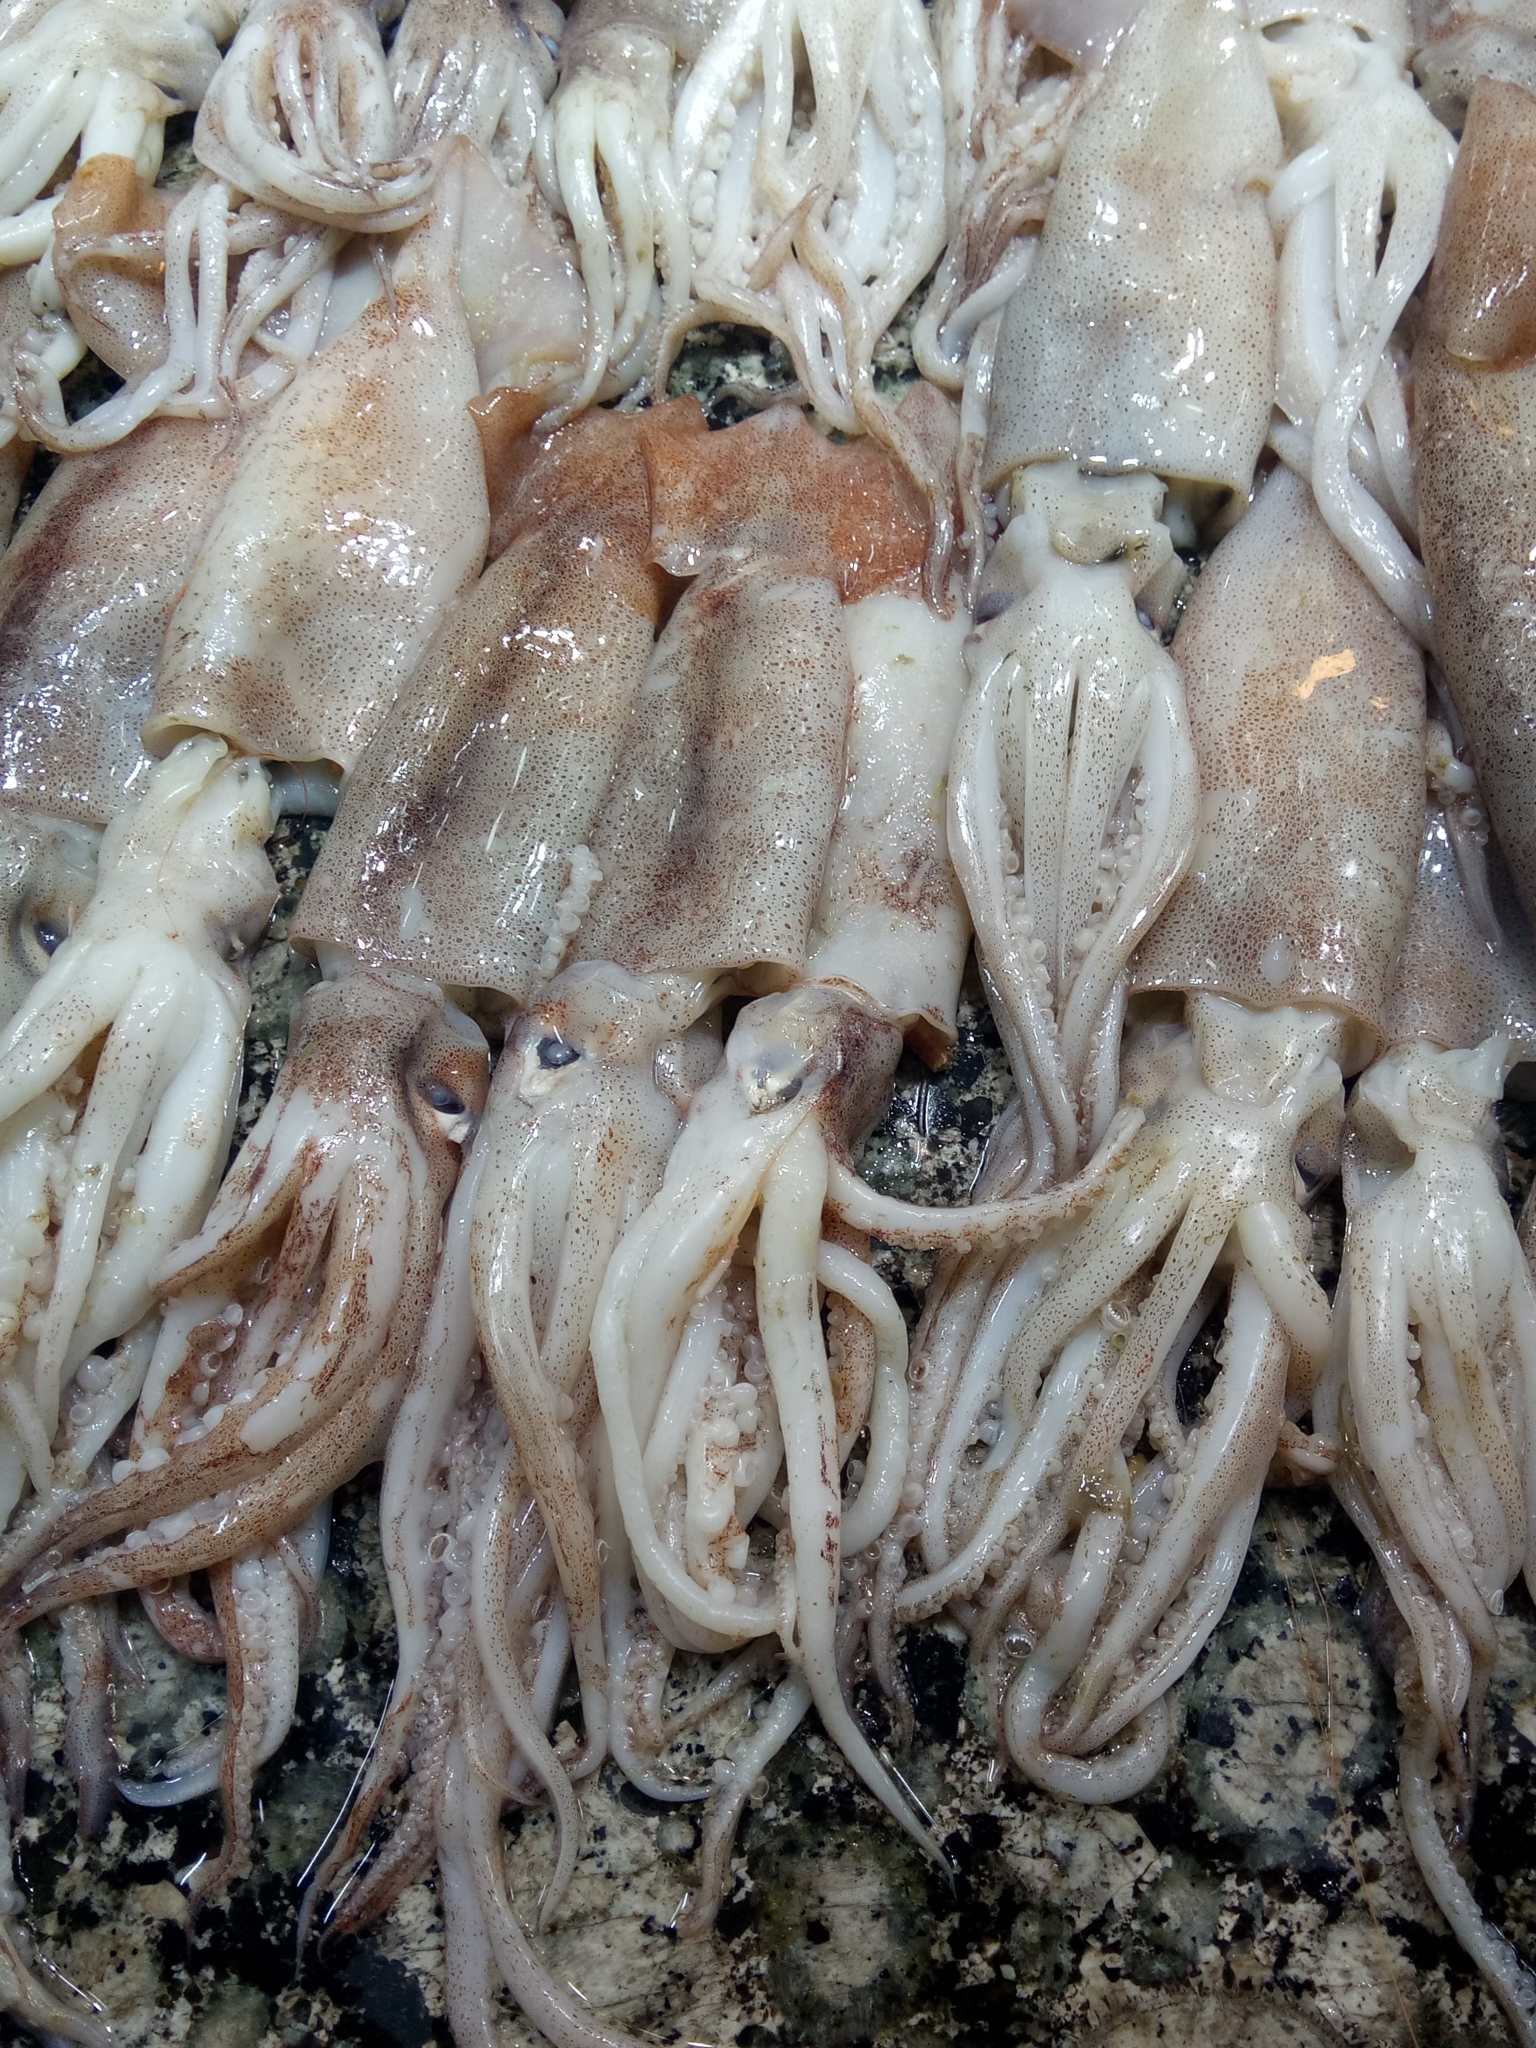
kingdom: Animalia
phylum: Mollusca
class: Cephalopoda
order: Oegopsida
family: Ommastrephidae
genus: Illex
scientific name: Illex coindetii
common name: Broadtail shortfin squid
